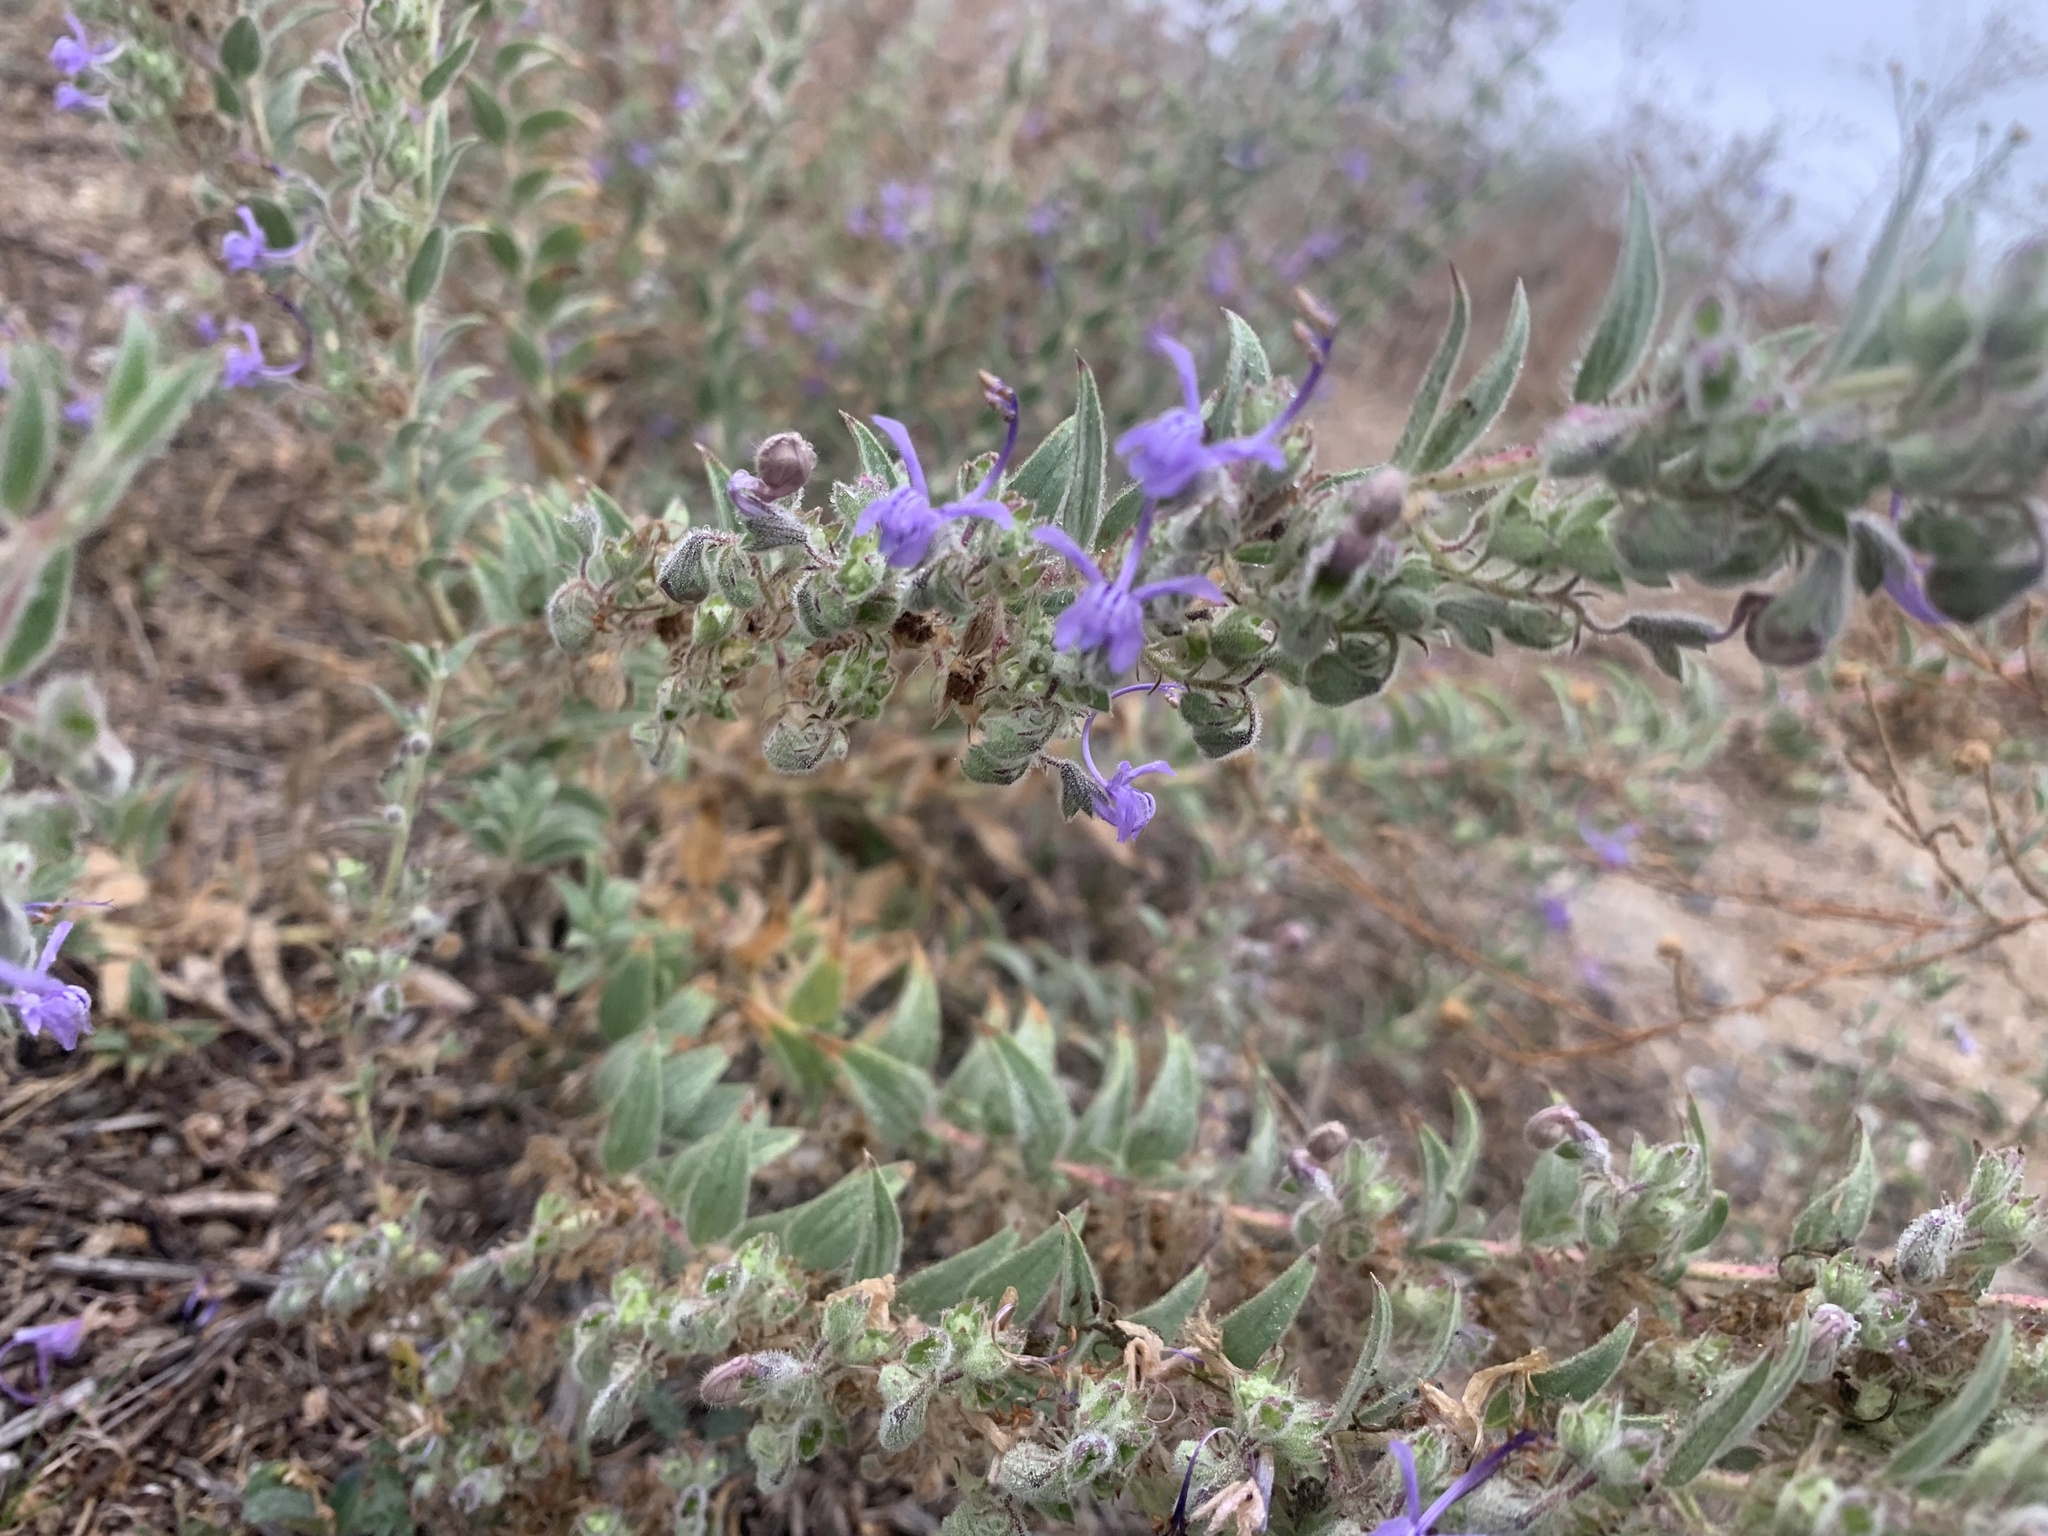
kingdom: Plantae
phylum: Tracheophyta
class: Magnoliopsida
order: Lamiales
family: Lamiaceae
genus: Trichostema
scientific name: Trichostema lanceolatum
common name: Vinegar-weed
